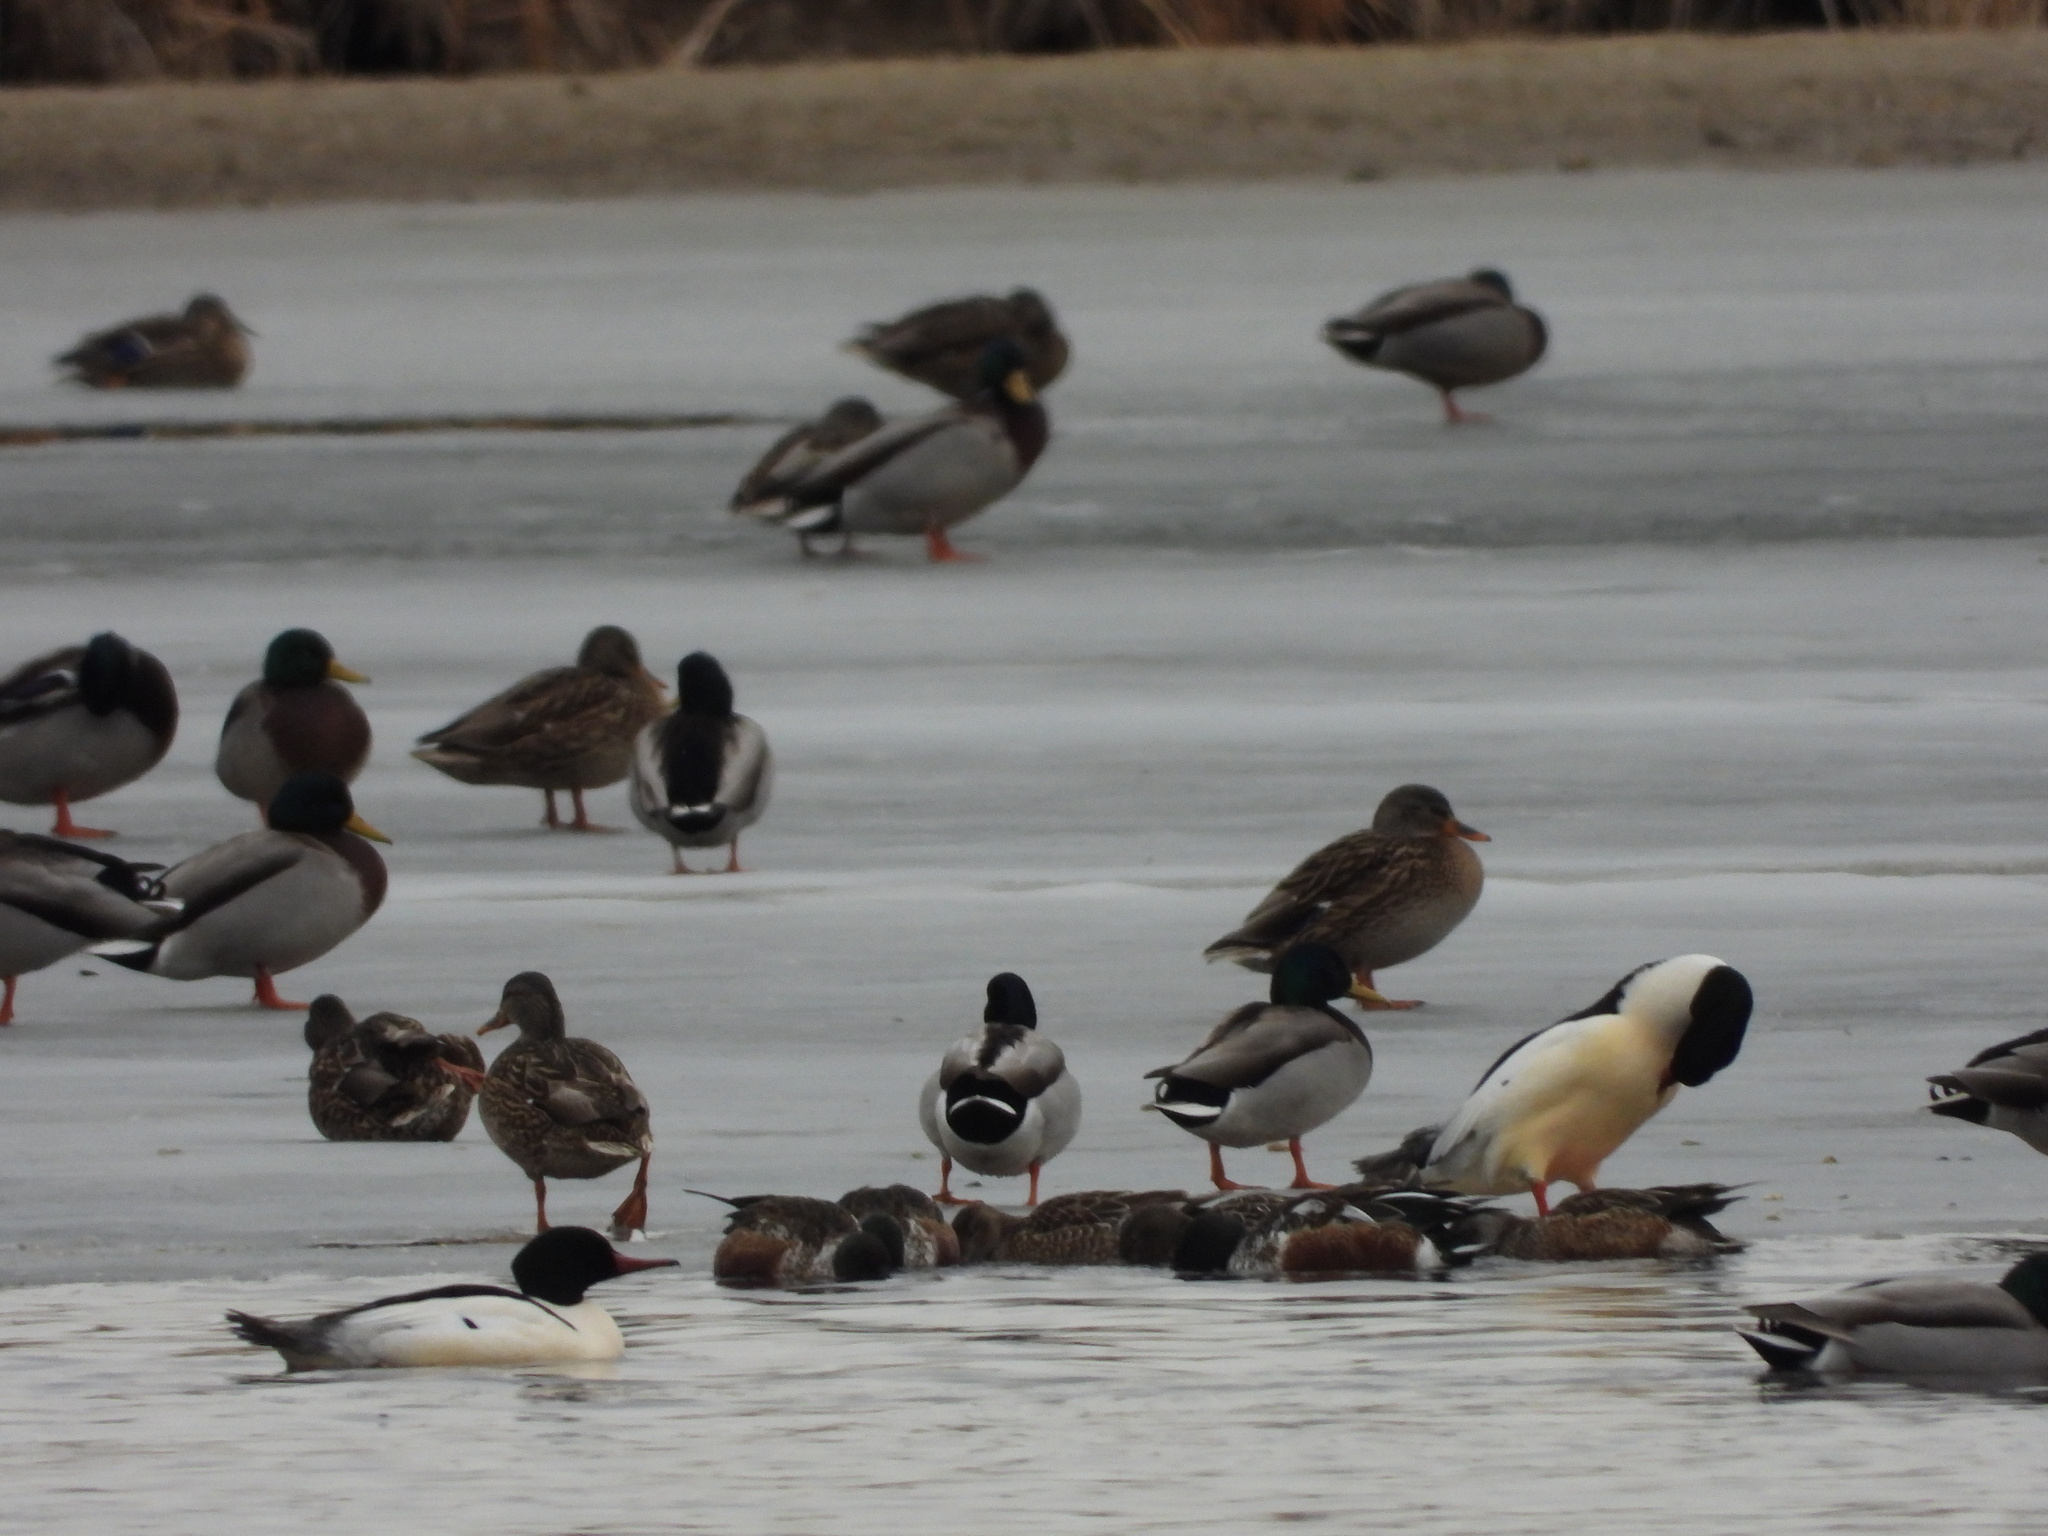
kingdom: Animalia
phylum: Chordata
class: Aves
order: Anseriformes
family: Anatidae
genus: Anas
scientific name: Anas platyrhynchos
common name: Mallard
